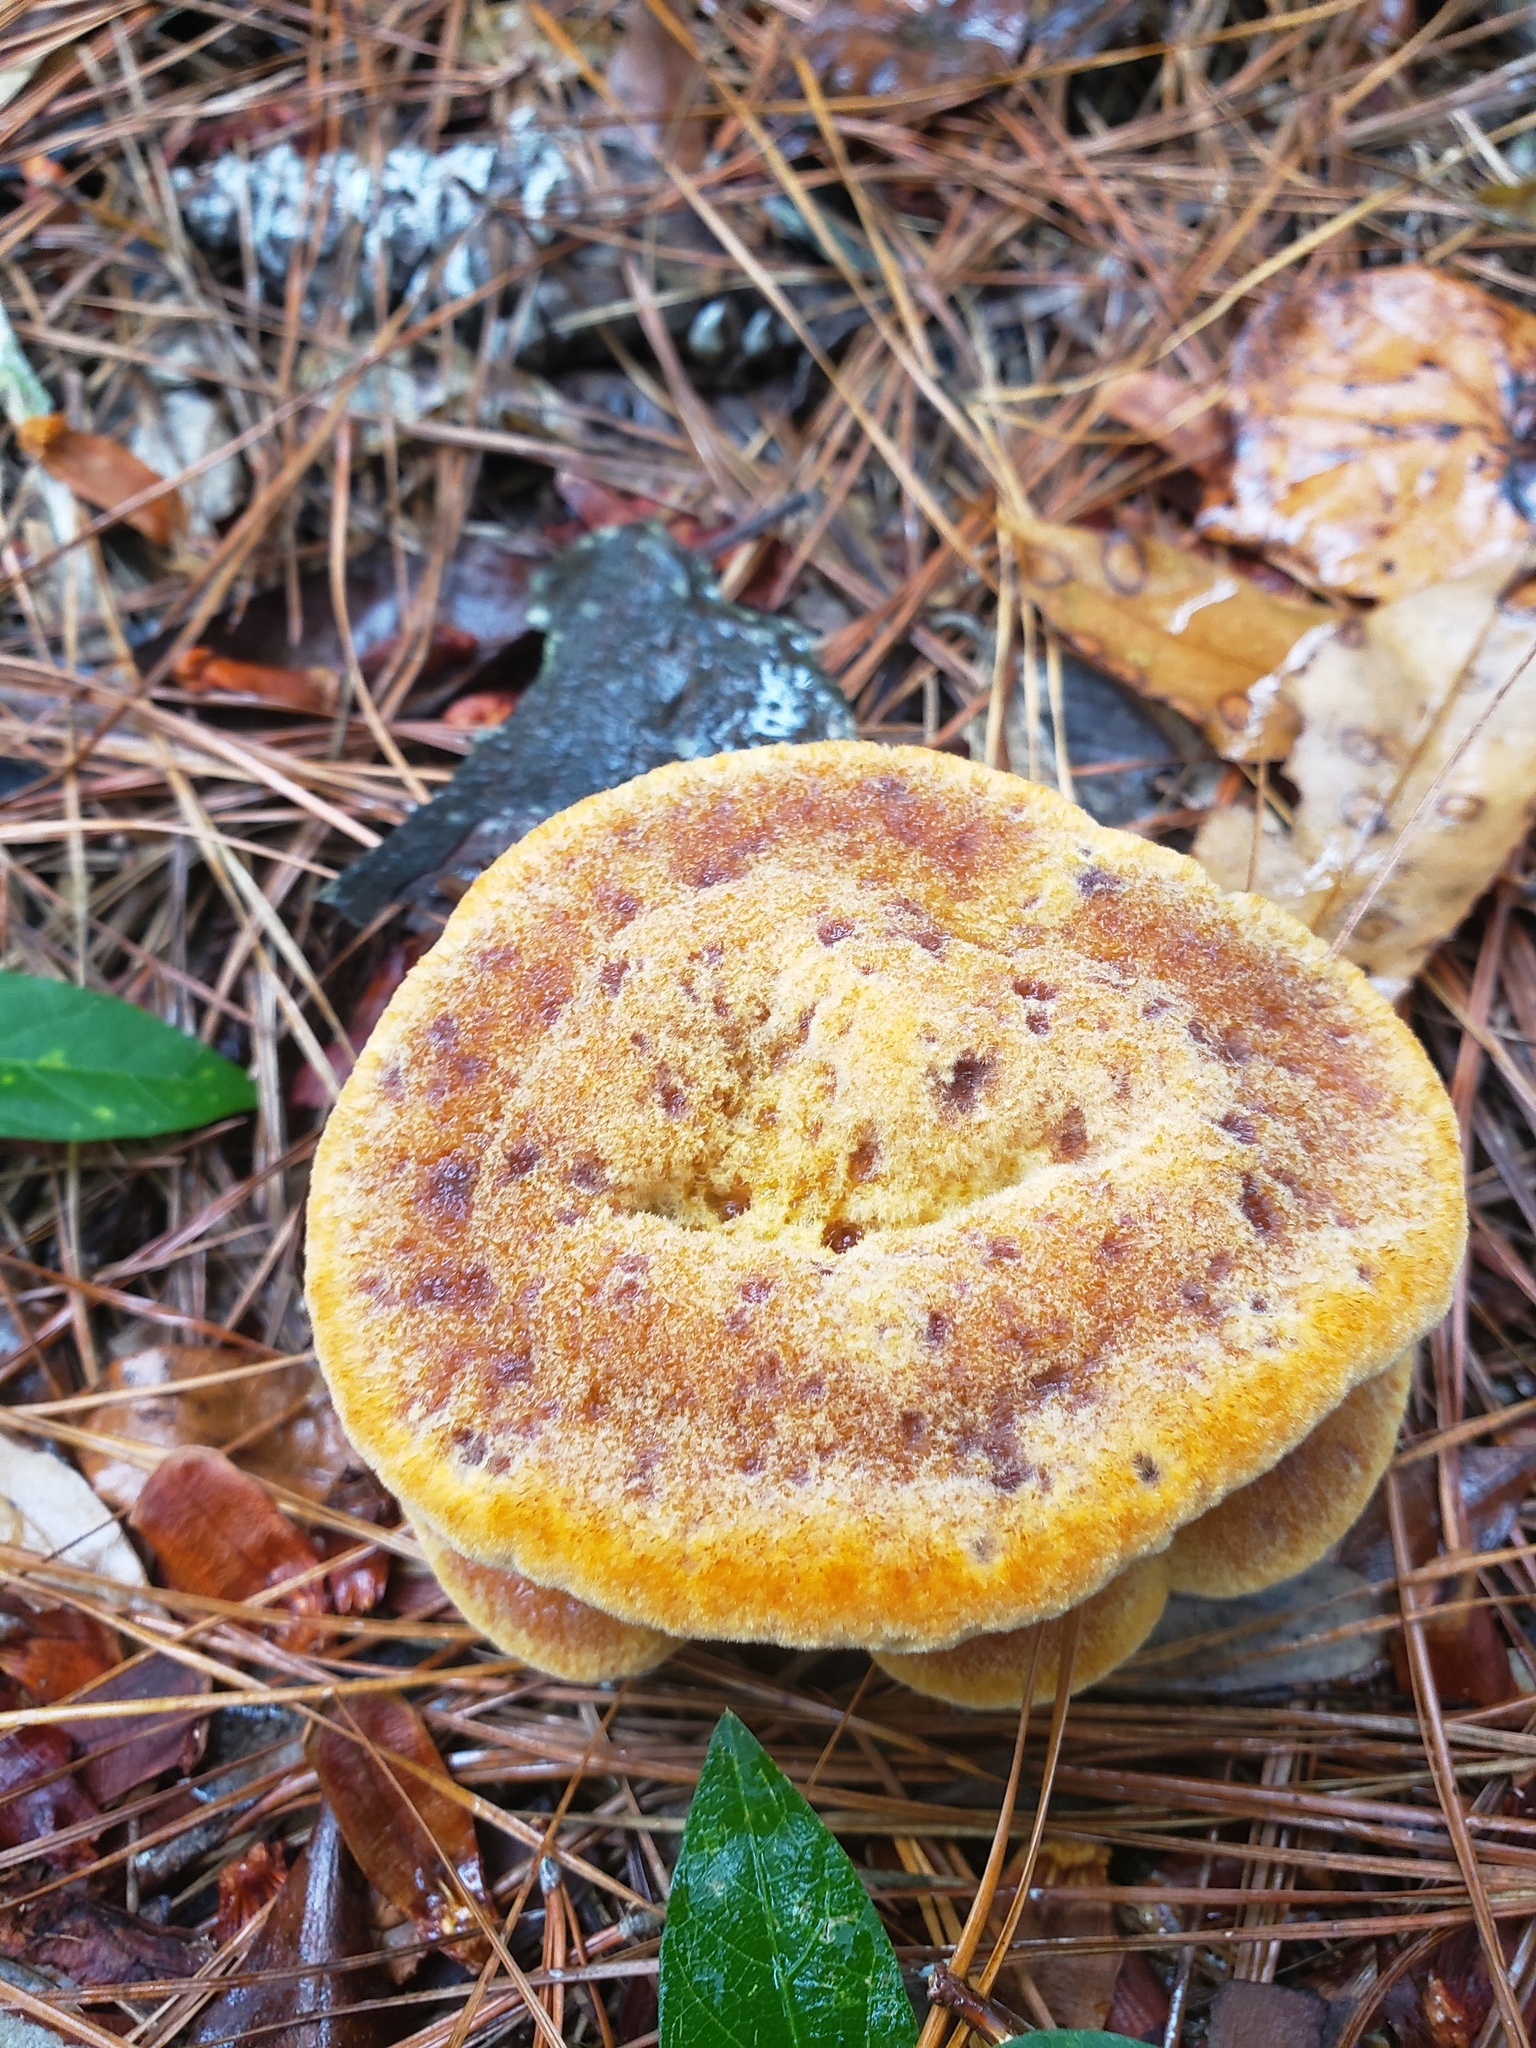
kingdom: Fungi
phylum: Basidiomycota
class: Agaricomycetes
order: Polyporales
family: Laetiporaceae
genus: Phaeolus
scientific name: Phaeolus schweinitzii
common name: Dyer's mazegill
